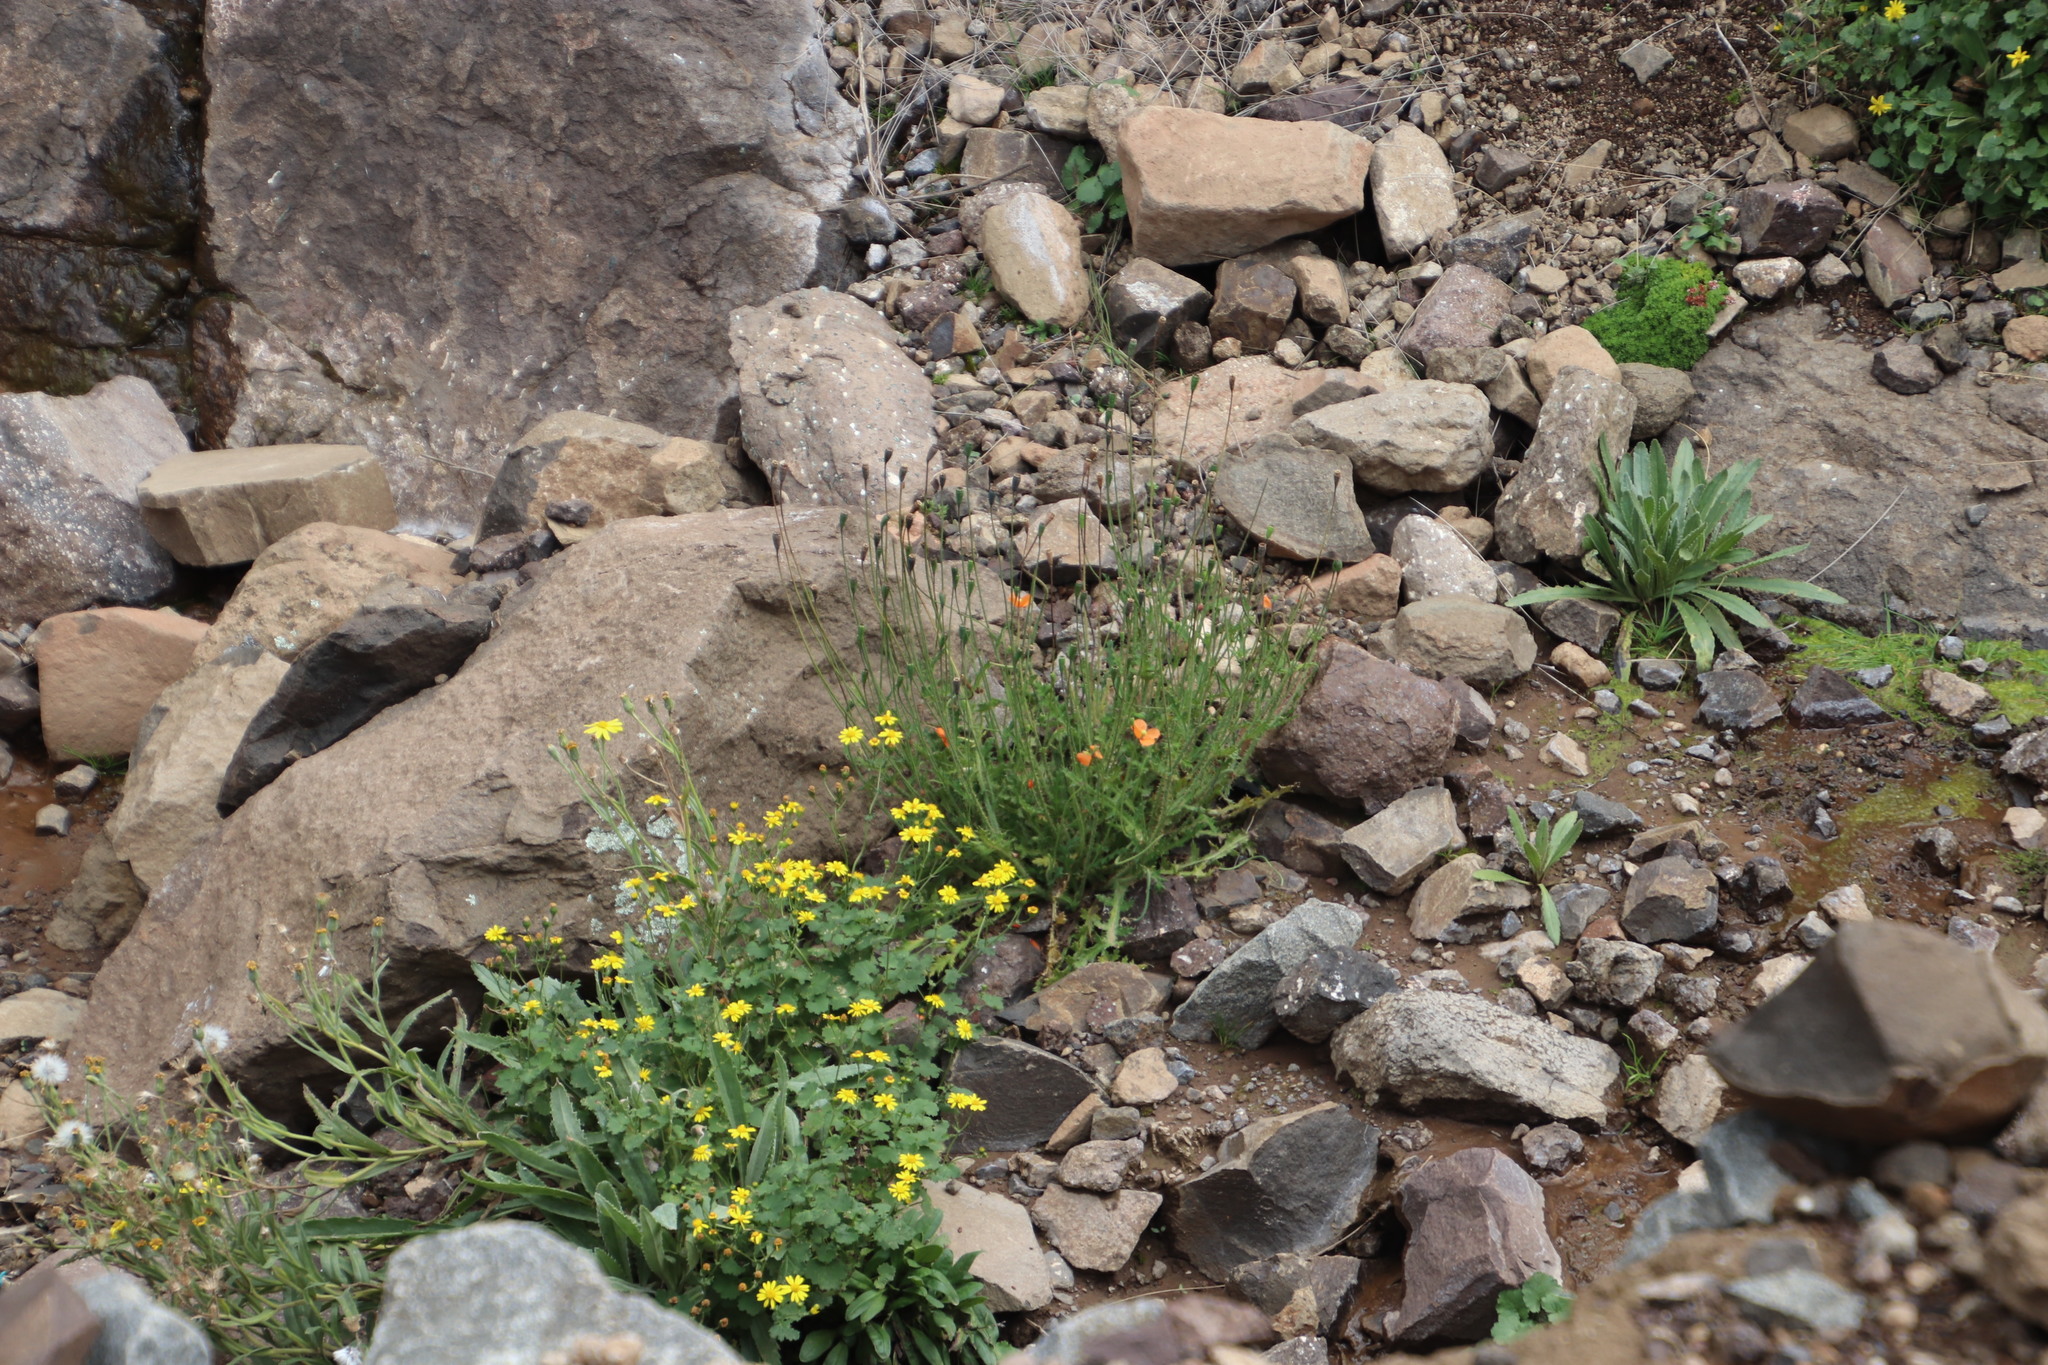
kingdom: Plantae
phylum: Tracheophyta
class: Magnoliopsida
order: Ranunculales
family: Papaveraceae
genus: Papaver
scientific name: Papaver aculeatum
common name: Bristle poppy
